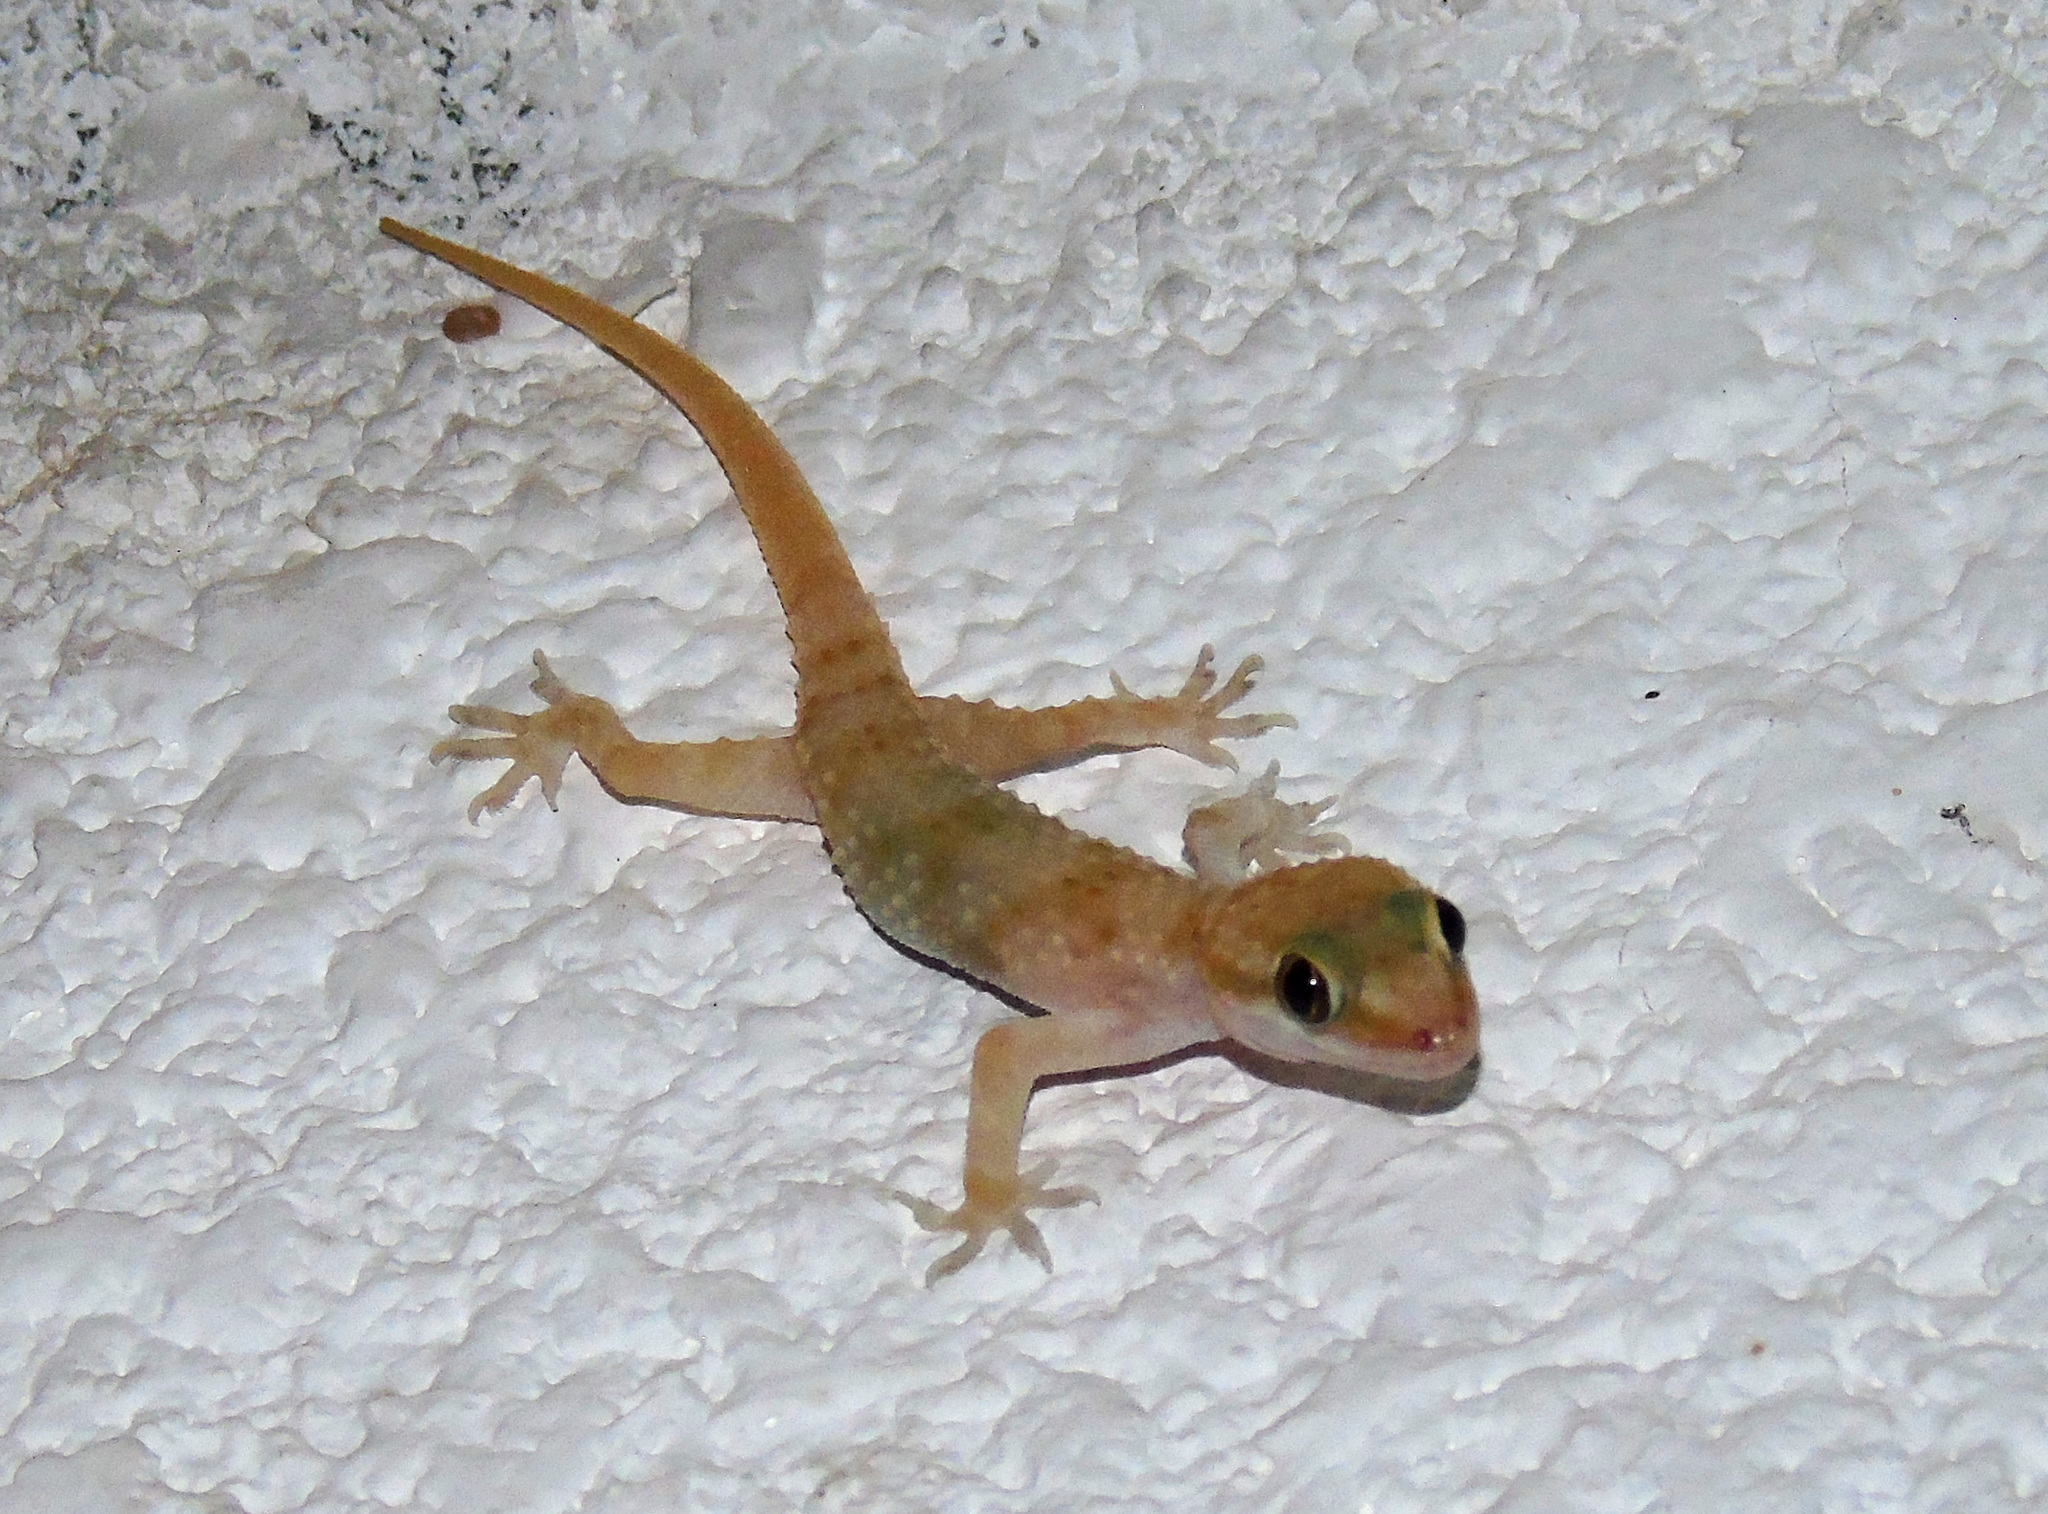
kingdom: Animalia
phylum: Chordata
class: Squamata
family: Gekkonidae
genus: Hemidactylus
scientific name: Hemidactylus turcicus
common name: Turkish gecko
